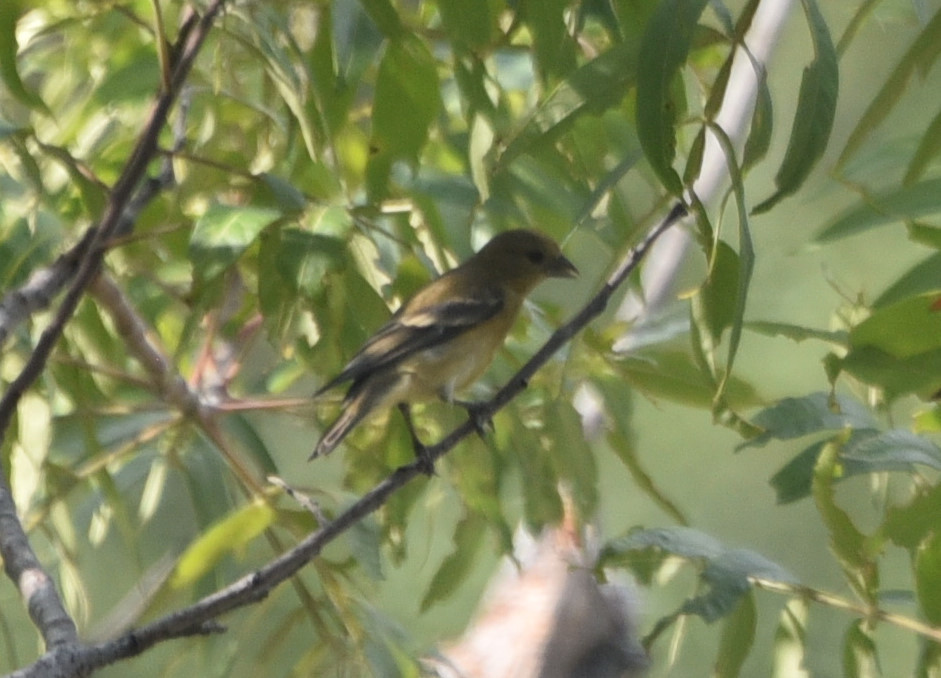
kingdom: Animalia
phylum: Chordata
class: Aves
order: Passeriformes
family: Fringillidae
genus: Spinus
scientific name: Spinus psaltria
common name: Lesser goldfinch
